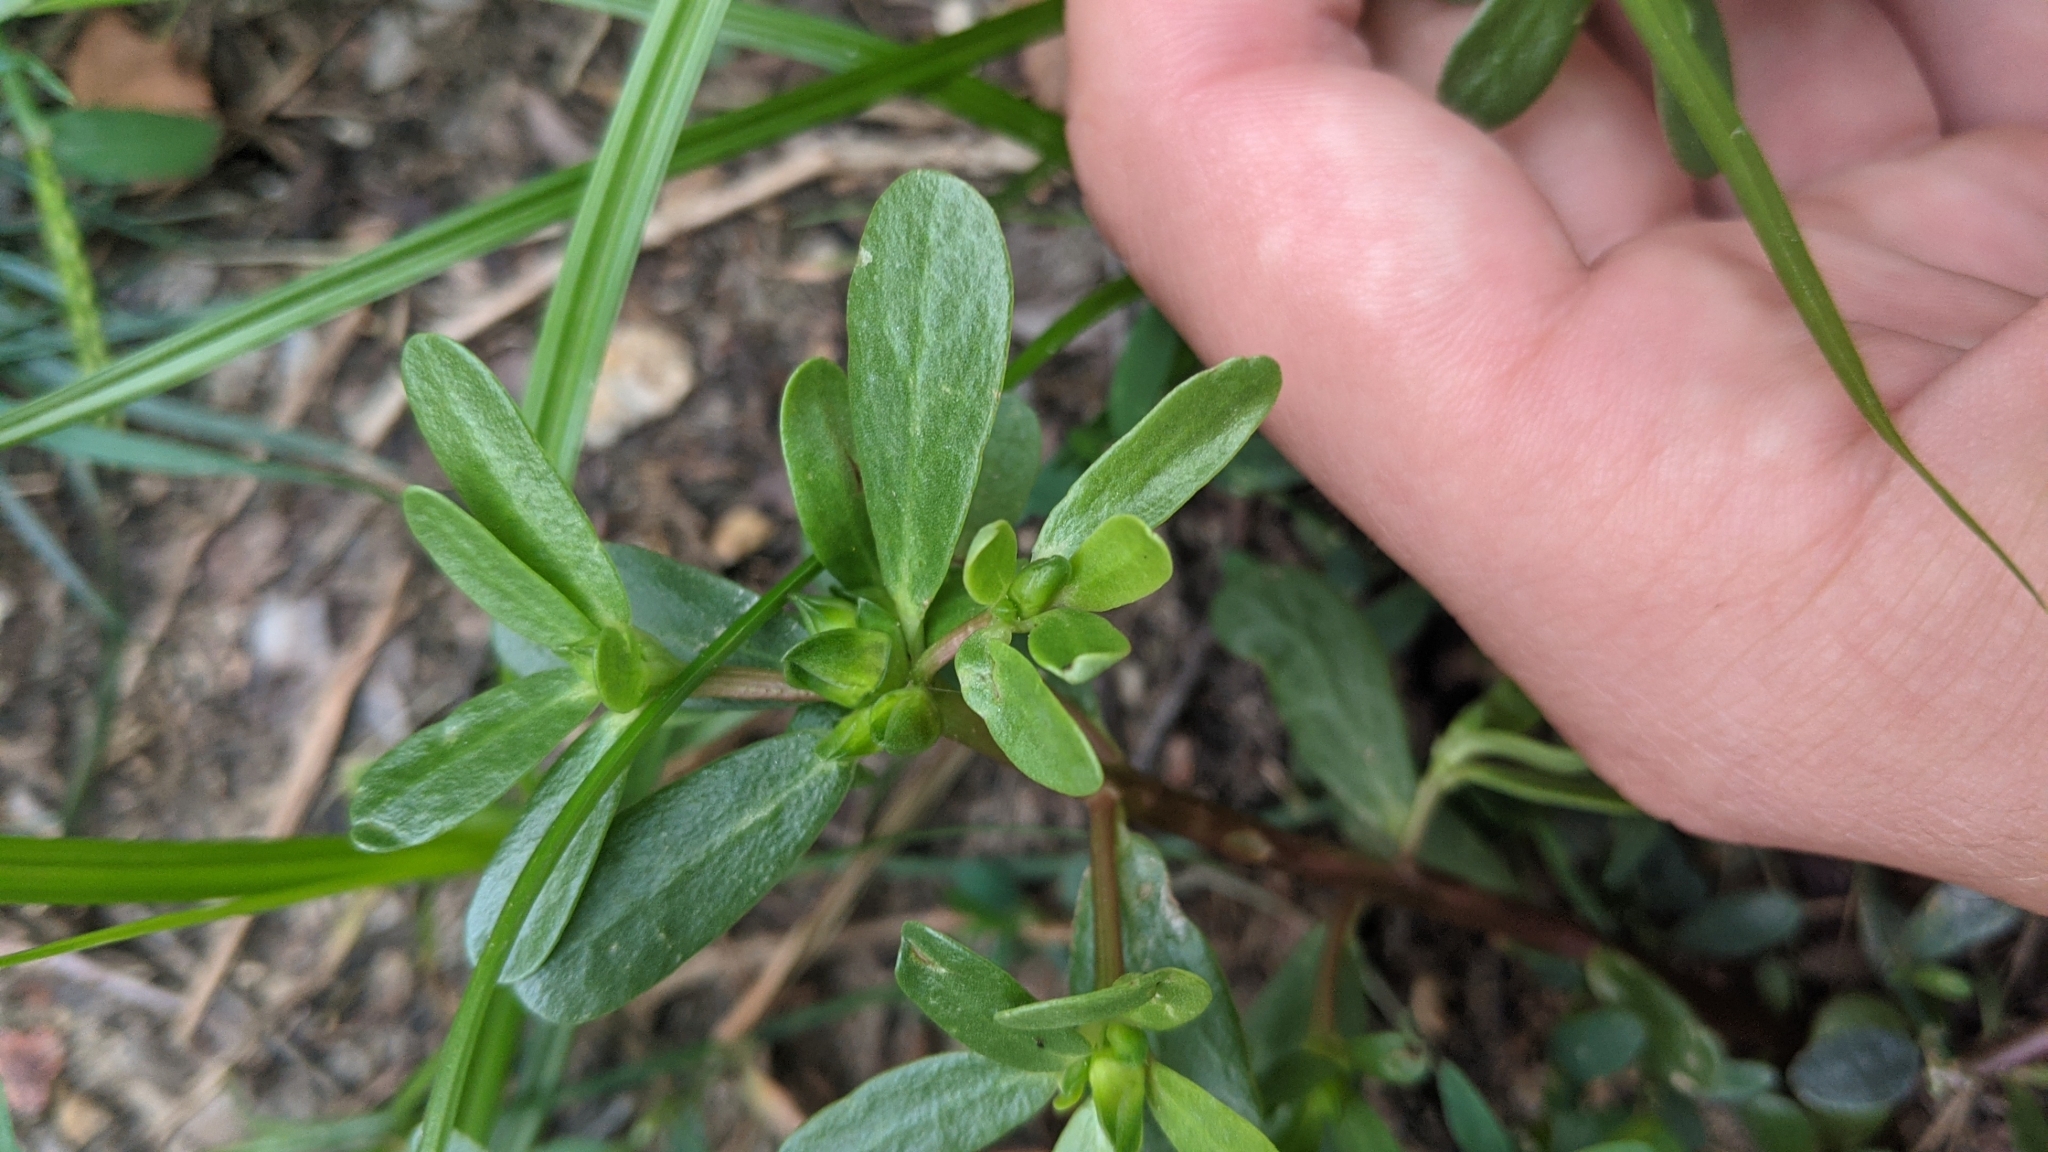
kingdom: Plantae
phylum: Tracheophyta
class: Magnoliopsida
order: Caryophyllales
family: Portulacaceae
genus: Portulaca
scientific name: Portulaca oleracea
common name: Common purslane
